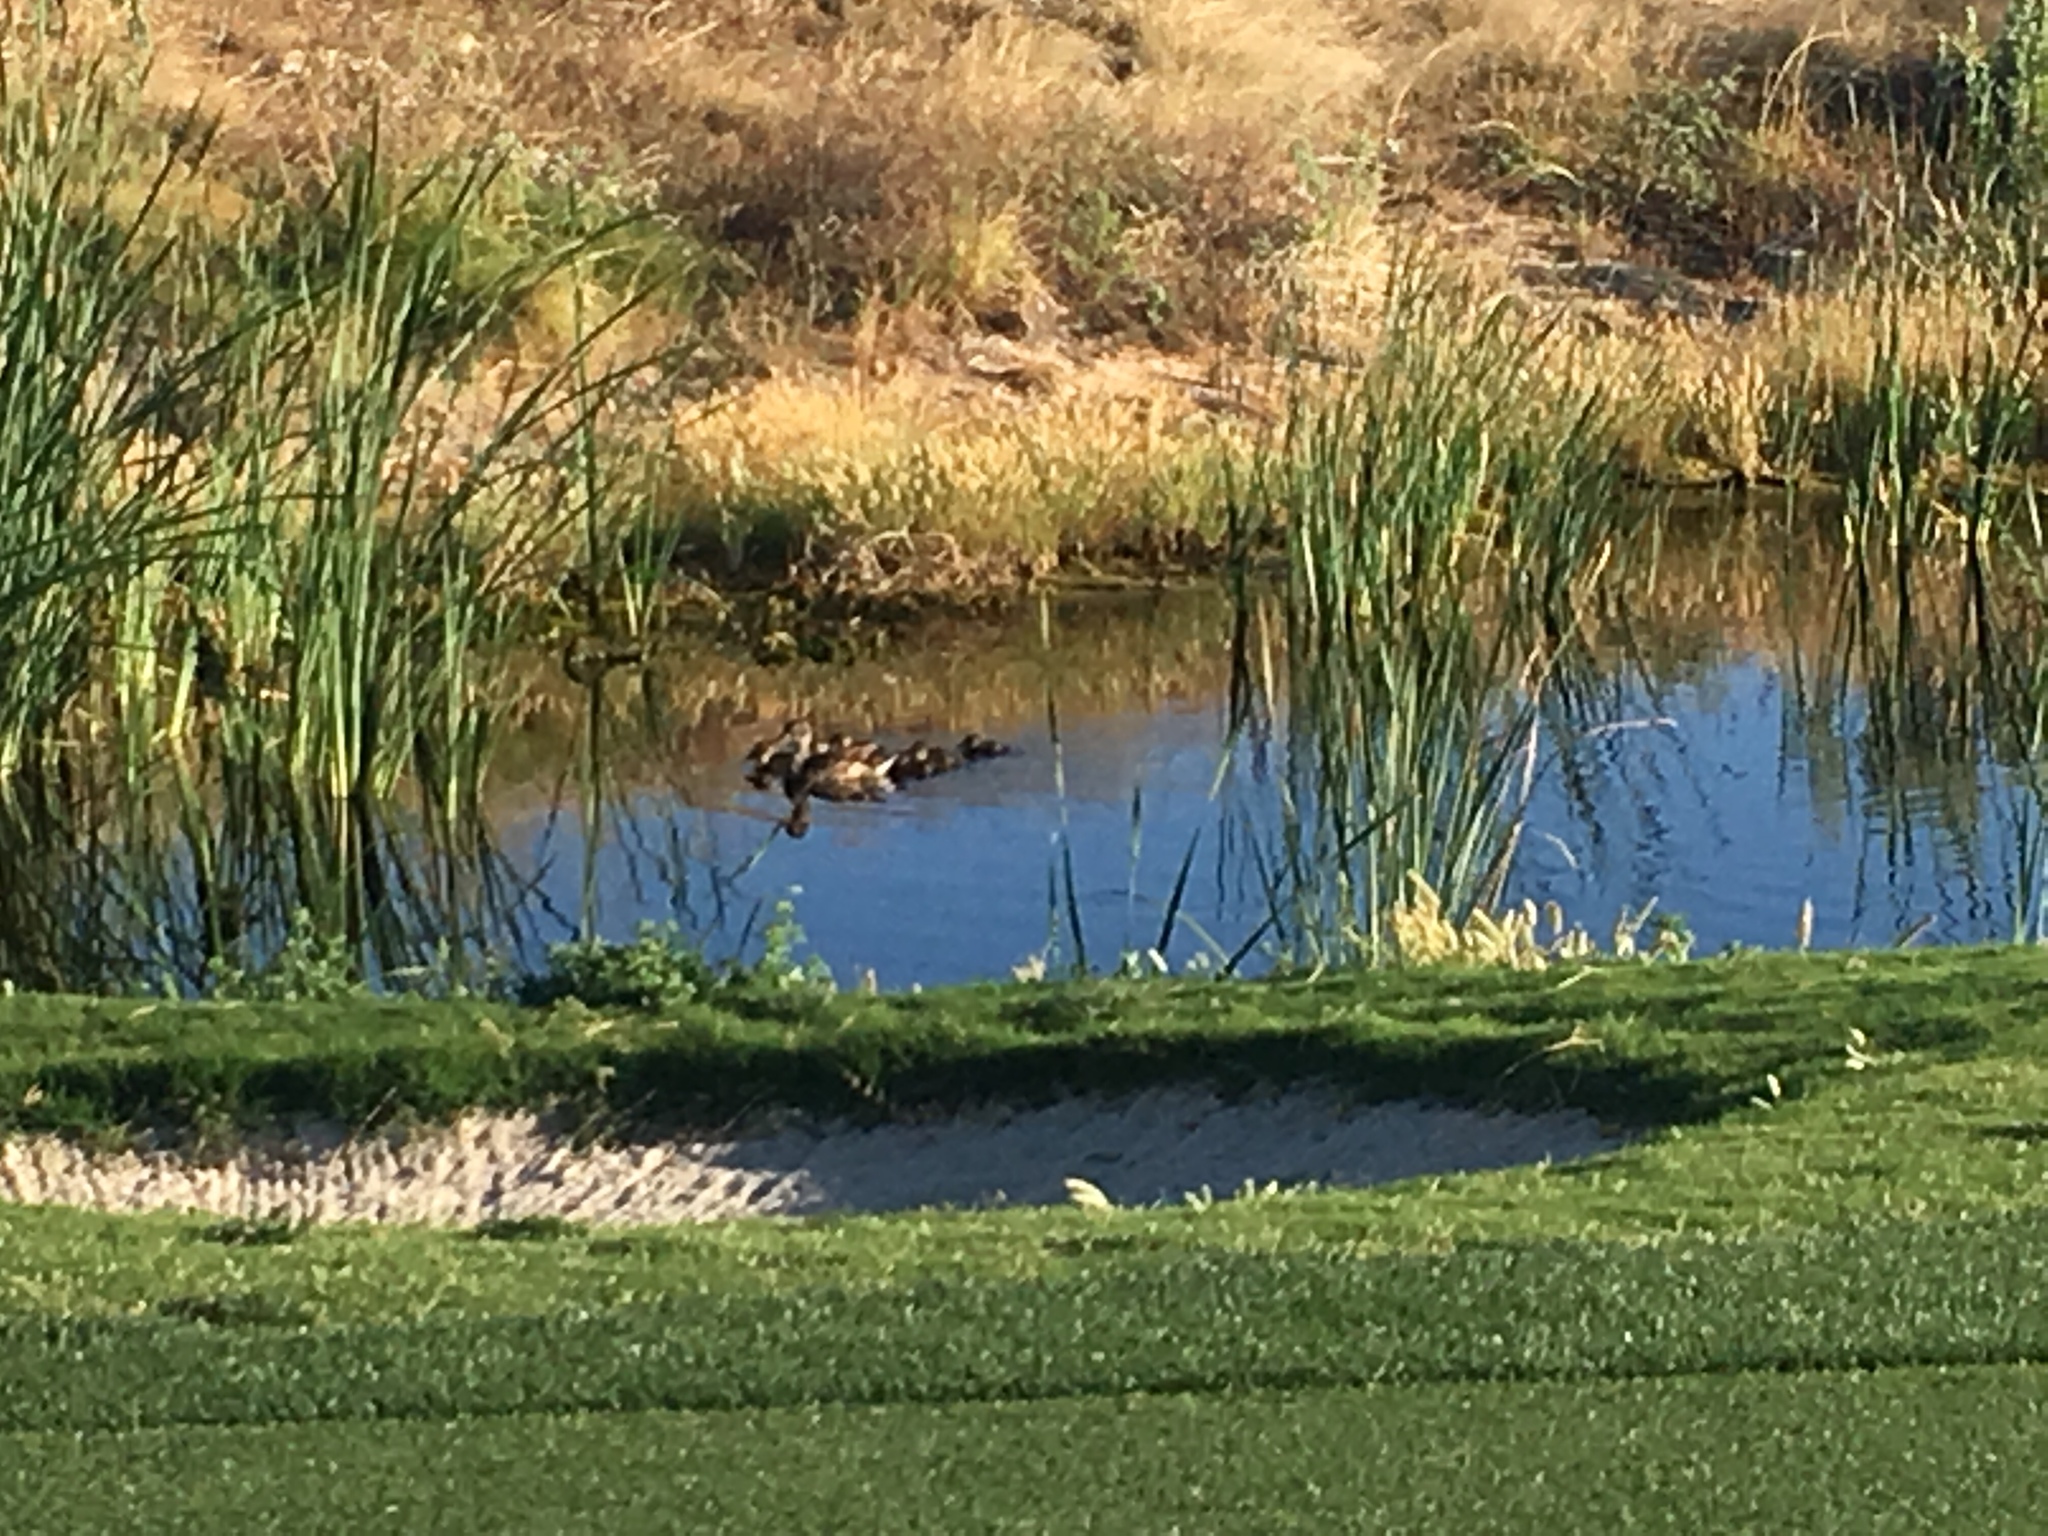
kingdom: Animalia
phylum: Chordata
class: Aves
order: Anseriformes
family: Anatidae
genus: Anas
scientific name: Anas platyrhynchos
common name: Mallard
